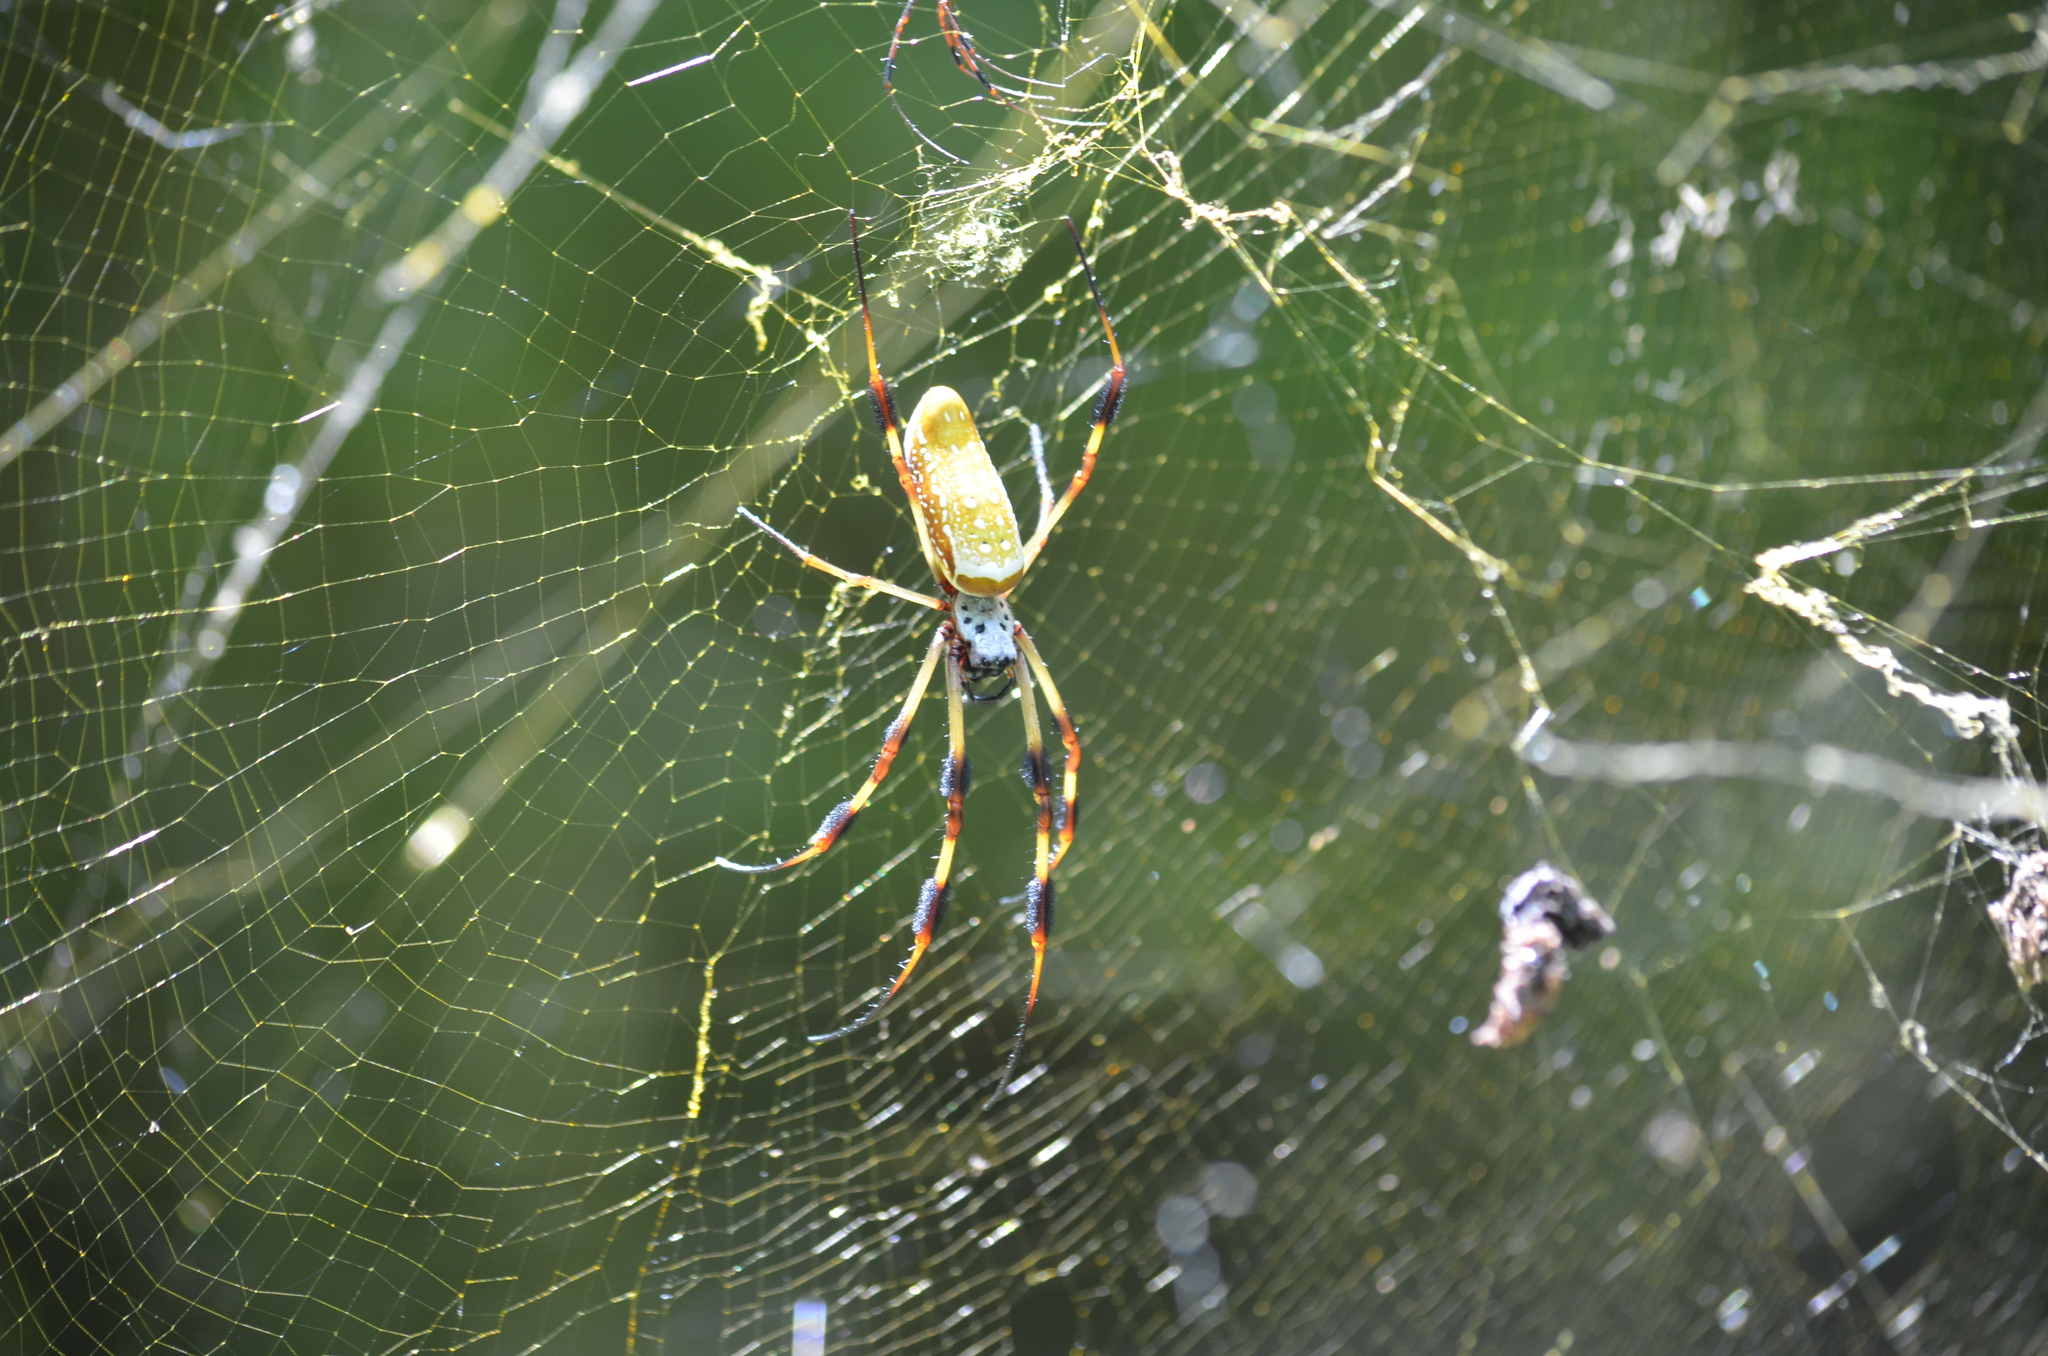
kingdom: Animalia
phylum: Arthropoda
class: Arachnida
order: Araneae
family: Araneidae
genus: Trichonephila
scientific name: Trichonephila clavipes
